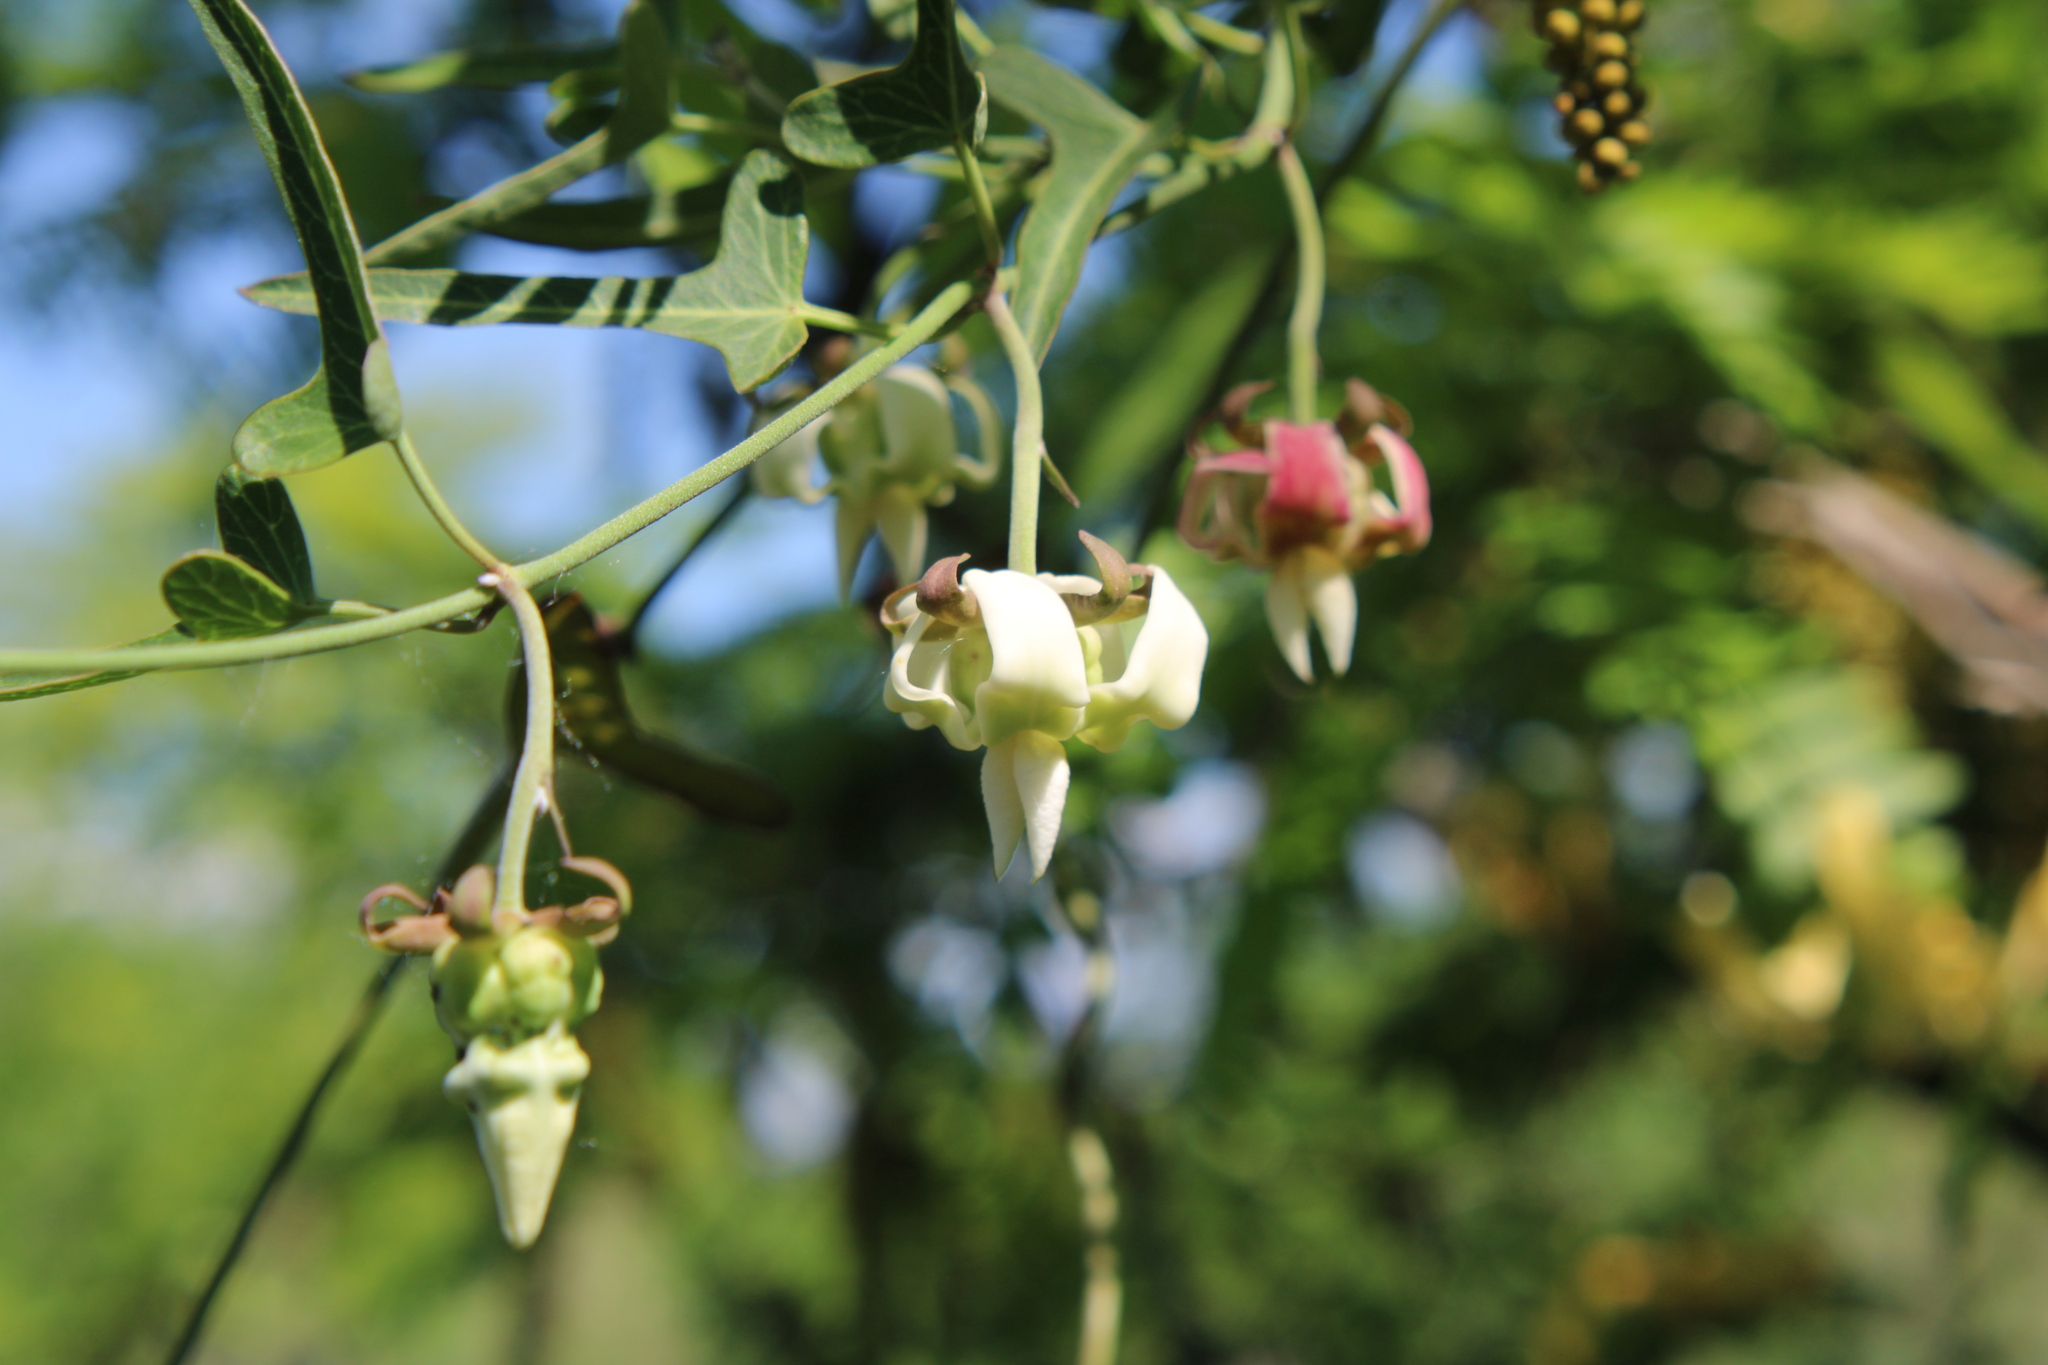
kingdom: Plantae
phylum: Tracheophyta
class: Magnoliopsida
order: Gentianales
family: Apocynaceae
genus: Araujia
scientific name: Araujia angustifolia
